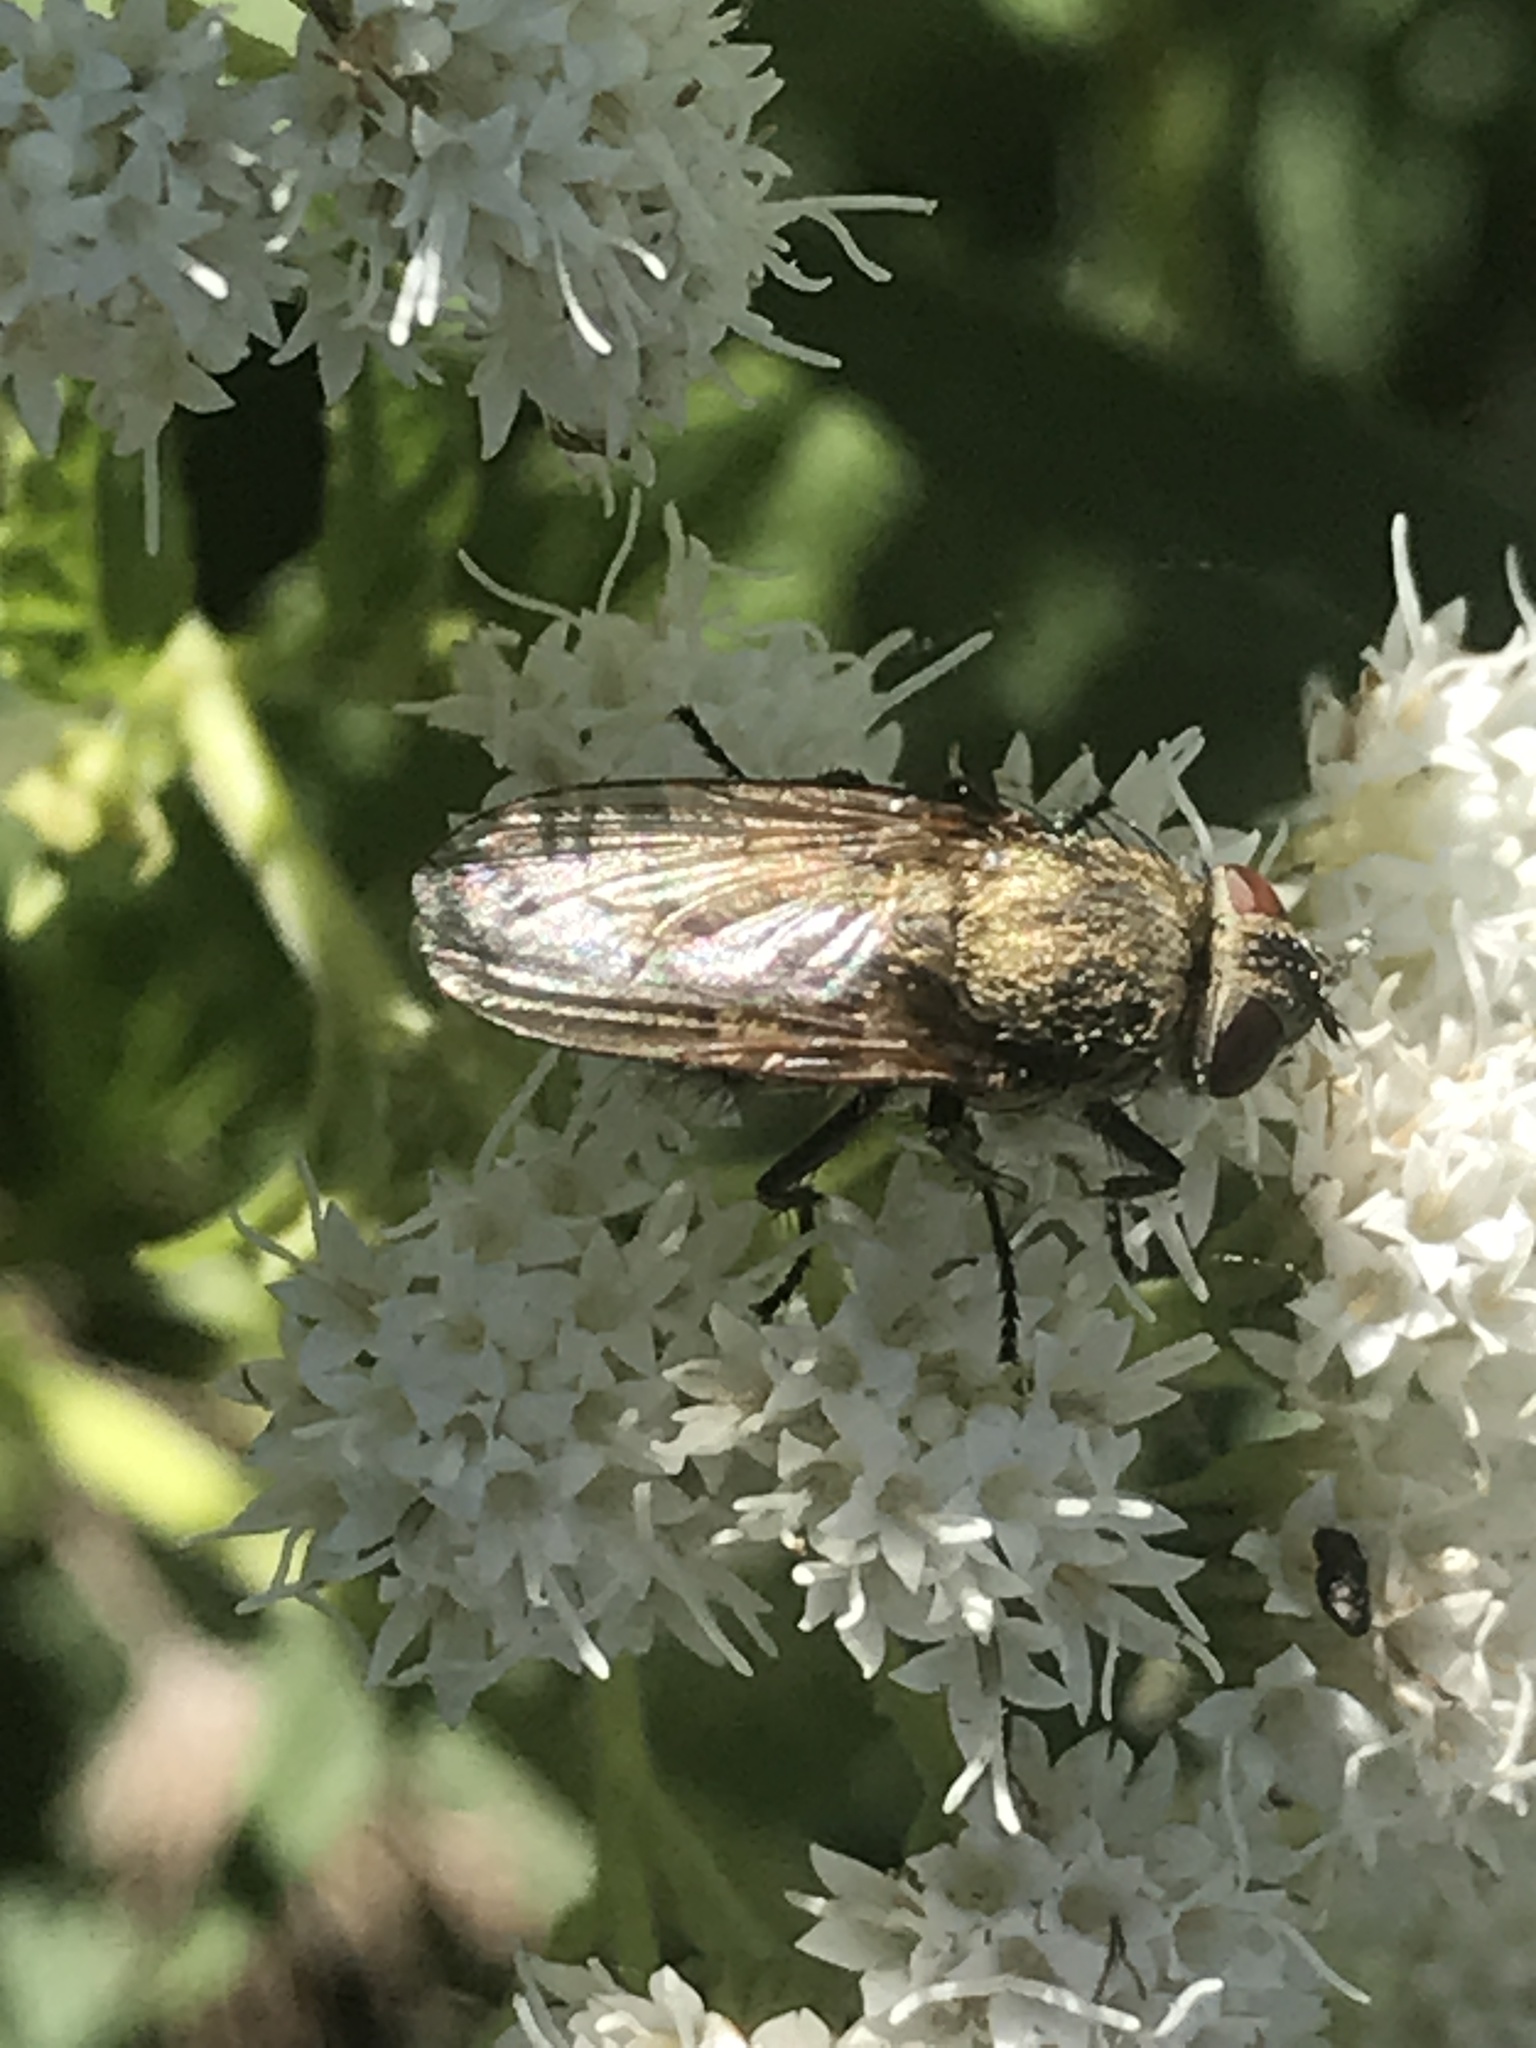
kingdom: Animalia
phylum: Arthropoda
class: Insecta
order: Diptera
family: Polleniidae
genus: Pollenia
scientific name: Pollenia
